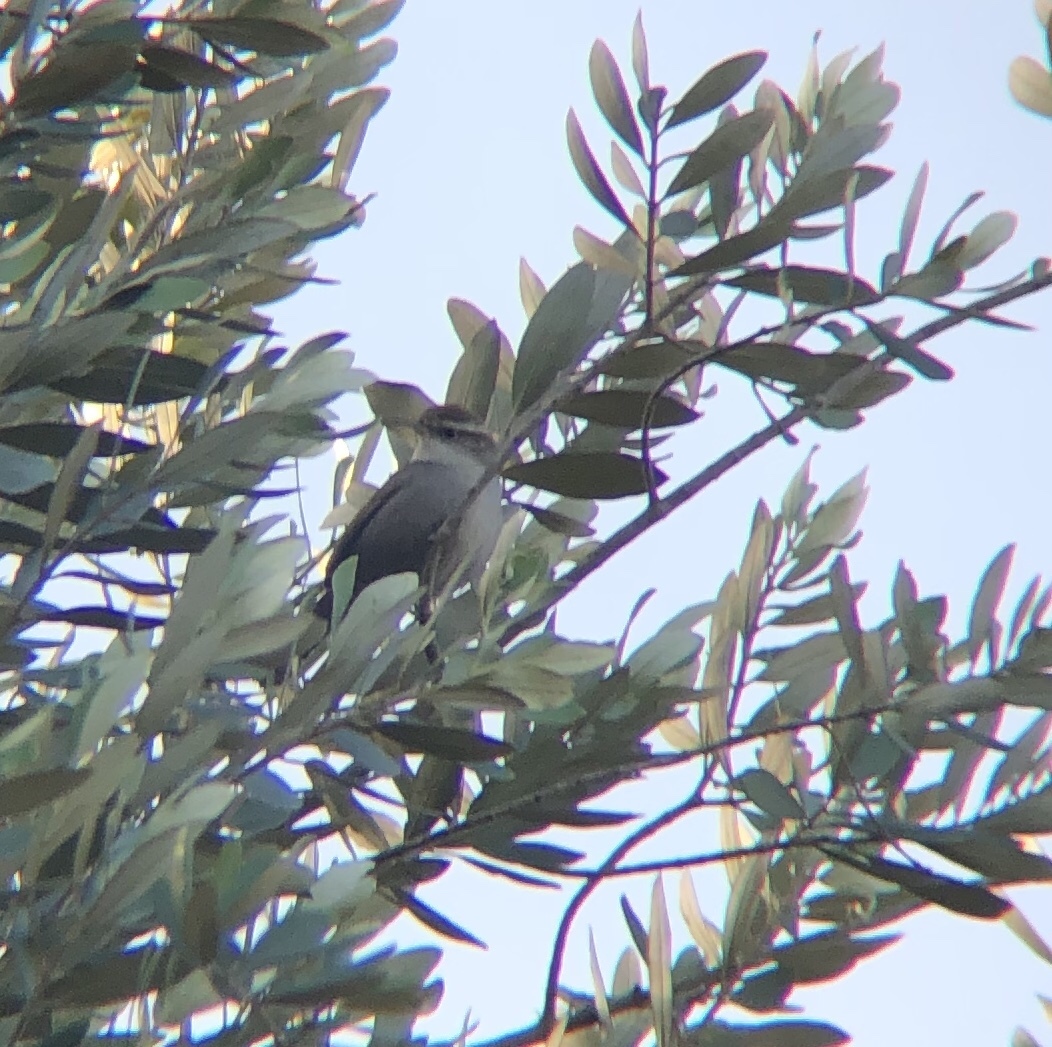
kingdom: Animalia
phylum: Chordata
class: Aves
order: Passeriformes
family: Troglodytidae
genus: Thryomanes
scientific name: Thryomanes bewickii
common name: Bewick's wren
